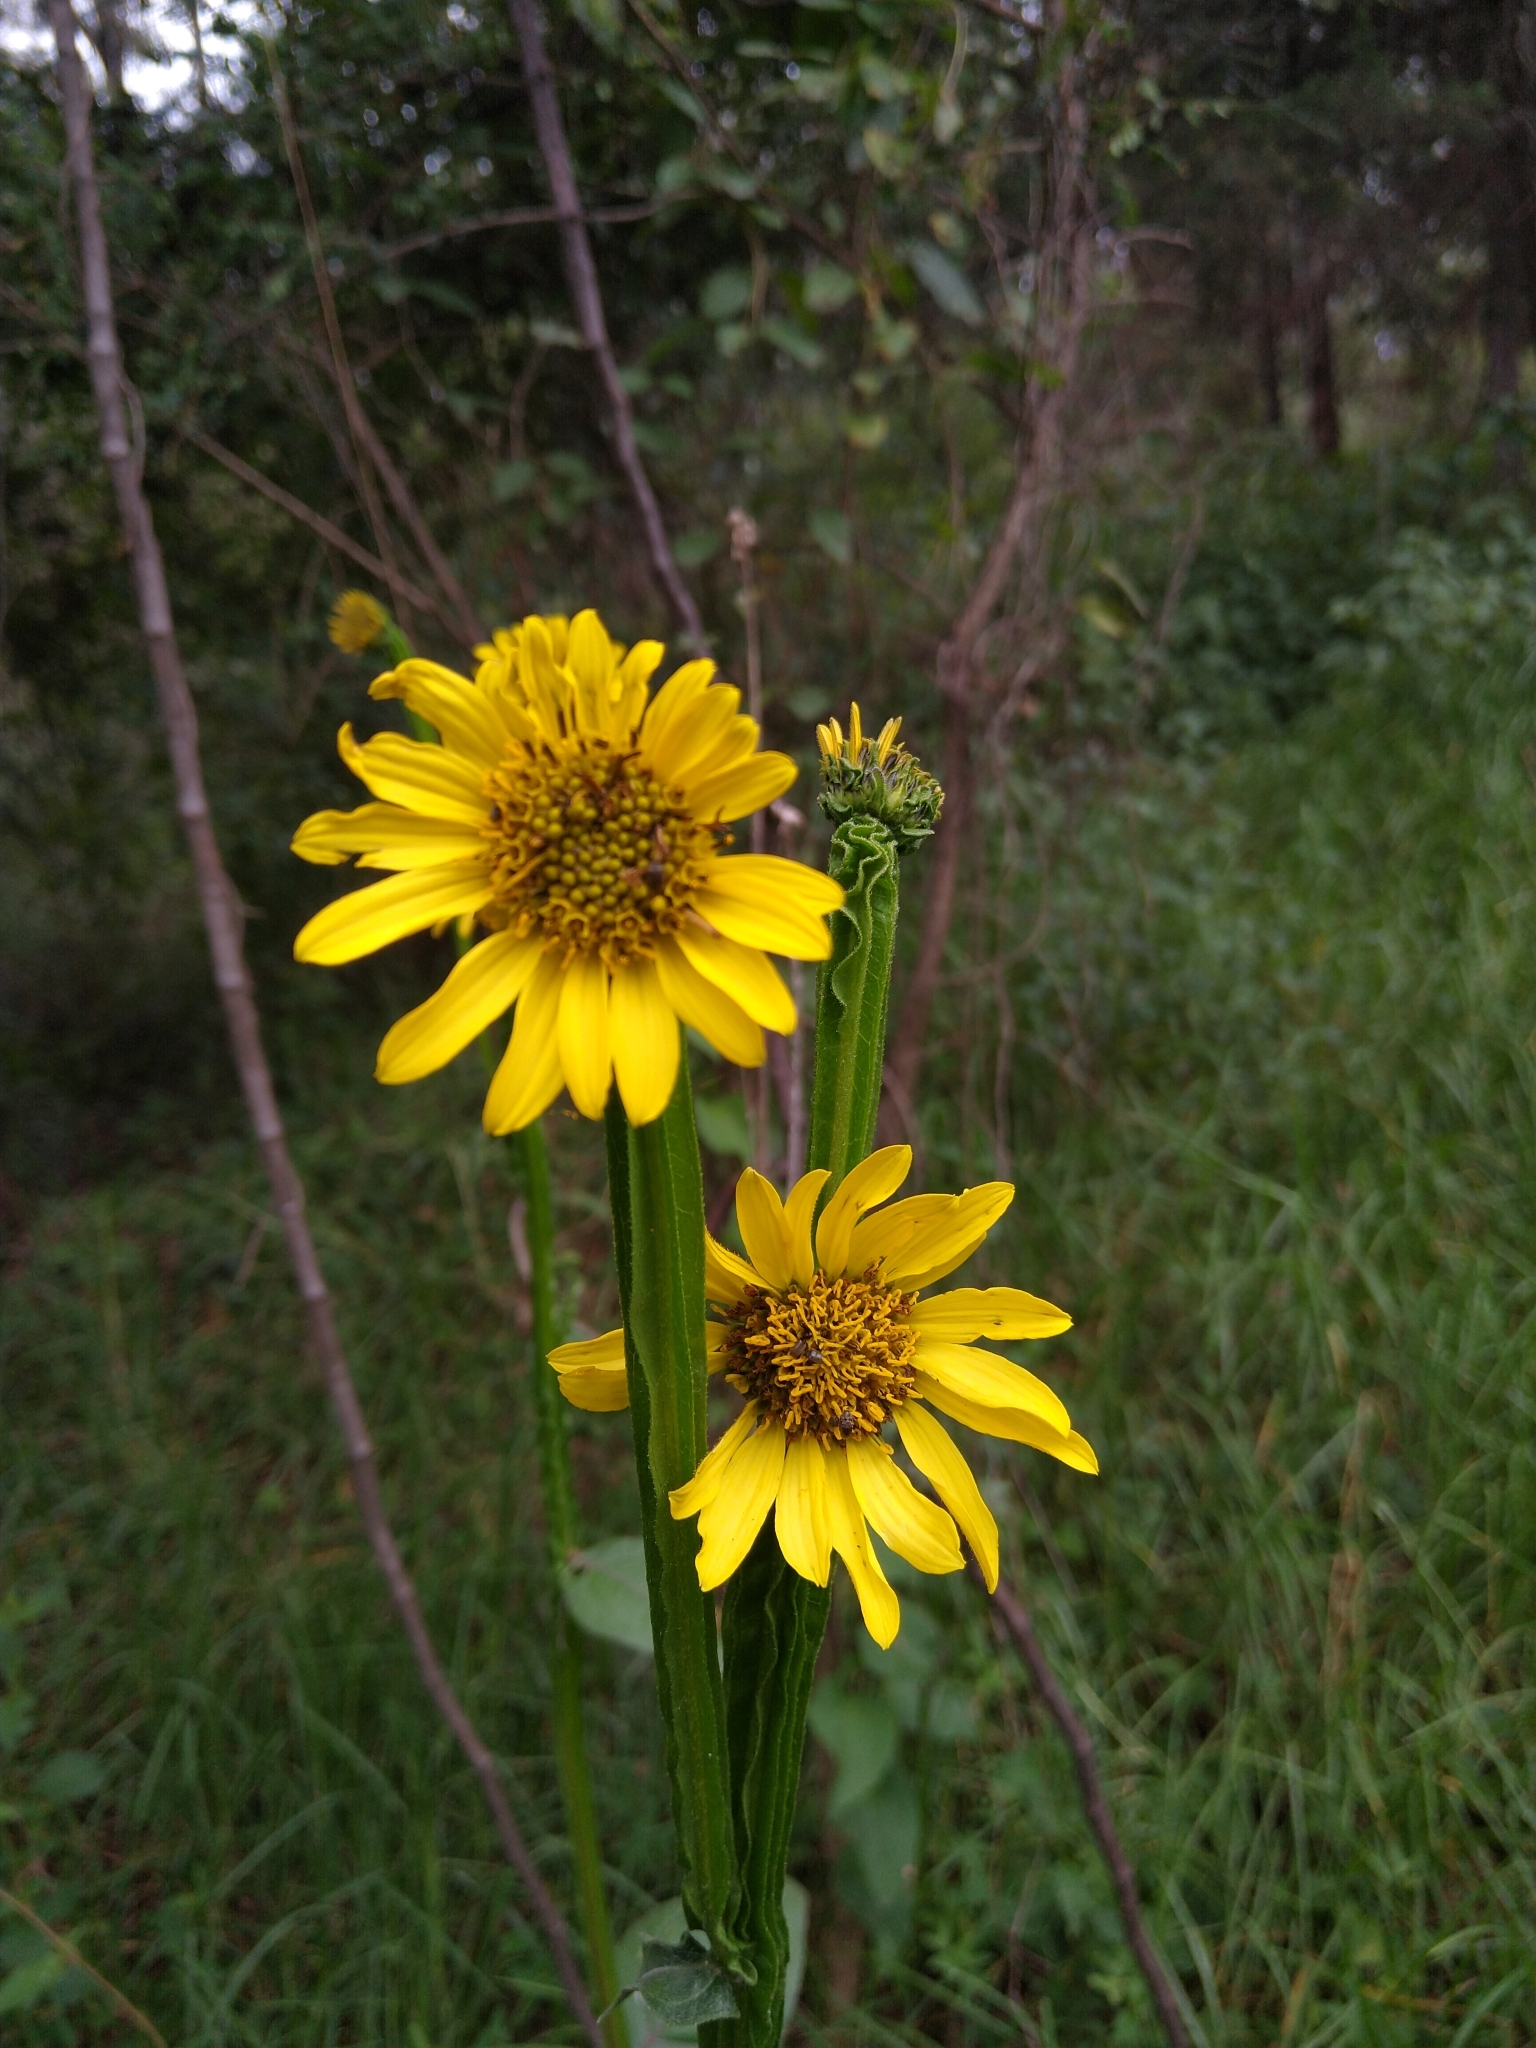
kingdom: Plantae
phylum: Tracheophyta
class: Magnoliopsida
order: Asterales
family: Asteraceae
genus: Verbesina
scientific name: Verbesina tetraptera
